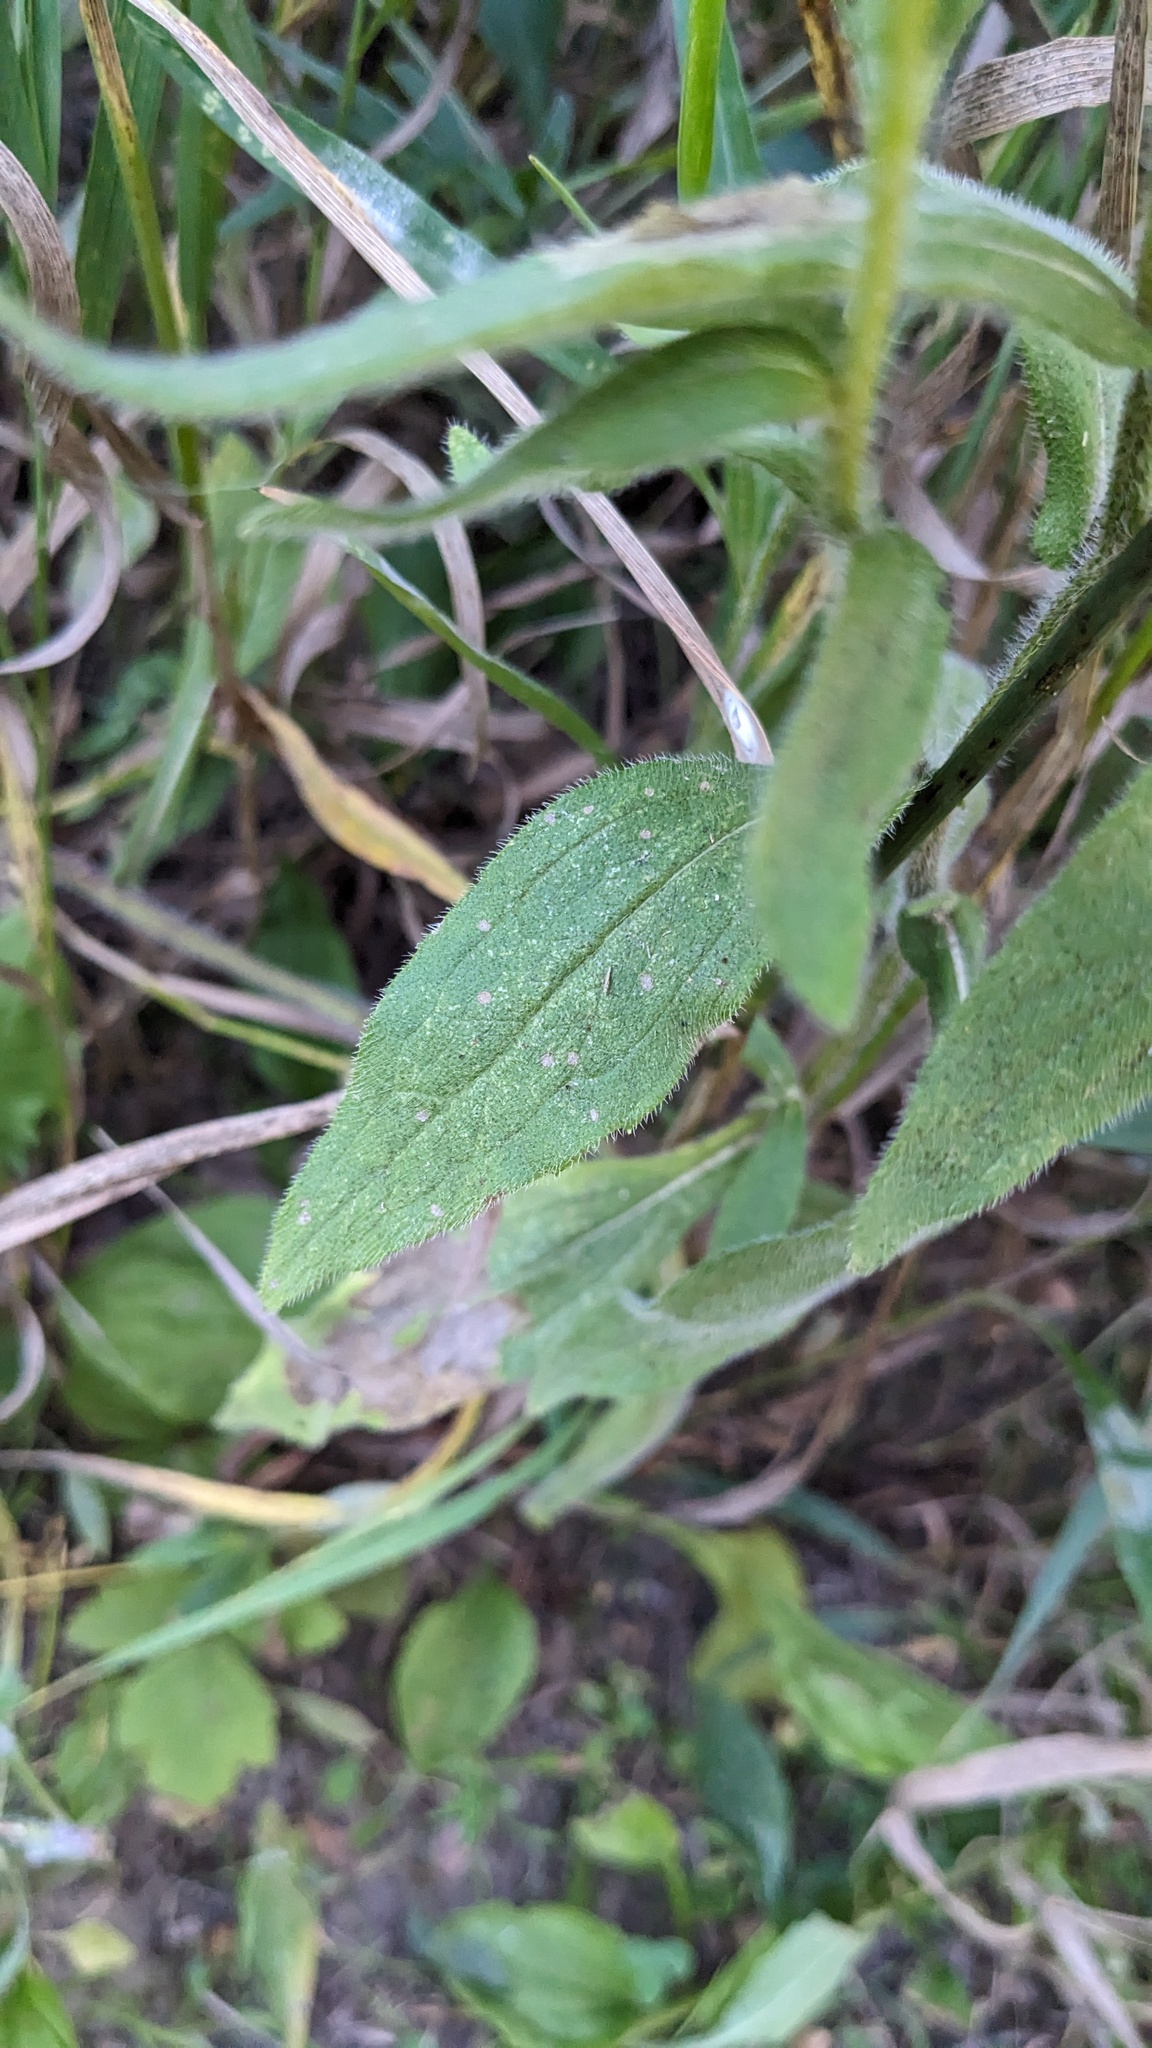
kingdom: Plantae
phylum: Tracheophyta
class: Magnoliopsida
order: Asterales
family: Asteraceae
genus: Rudbeckia
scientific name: Rudbeckia hirta
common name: Black-eyed-susan
